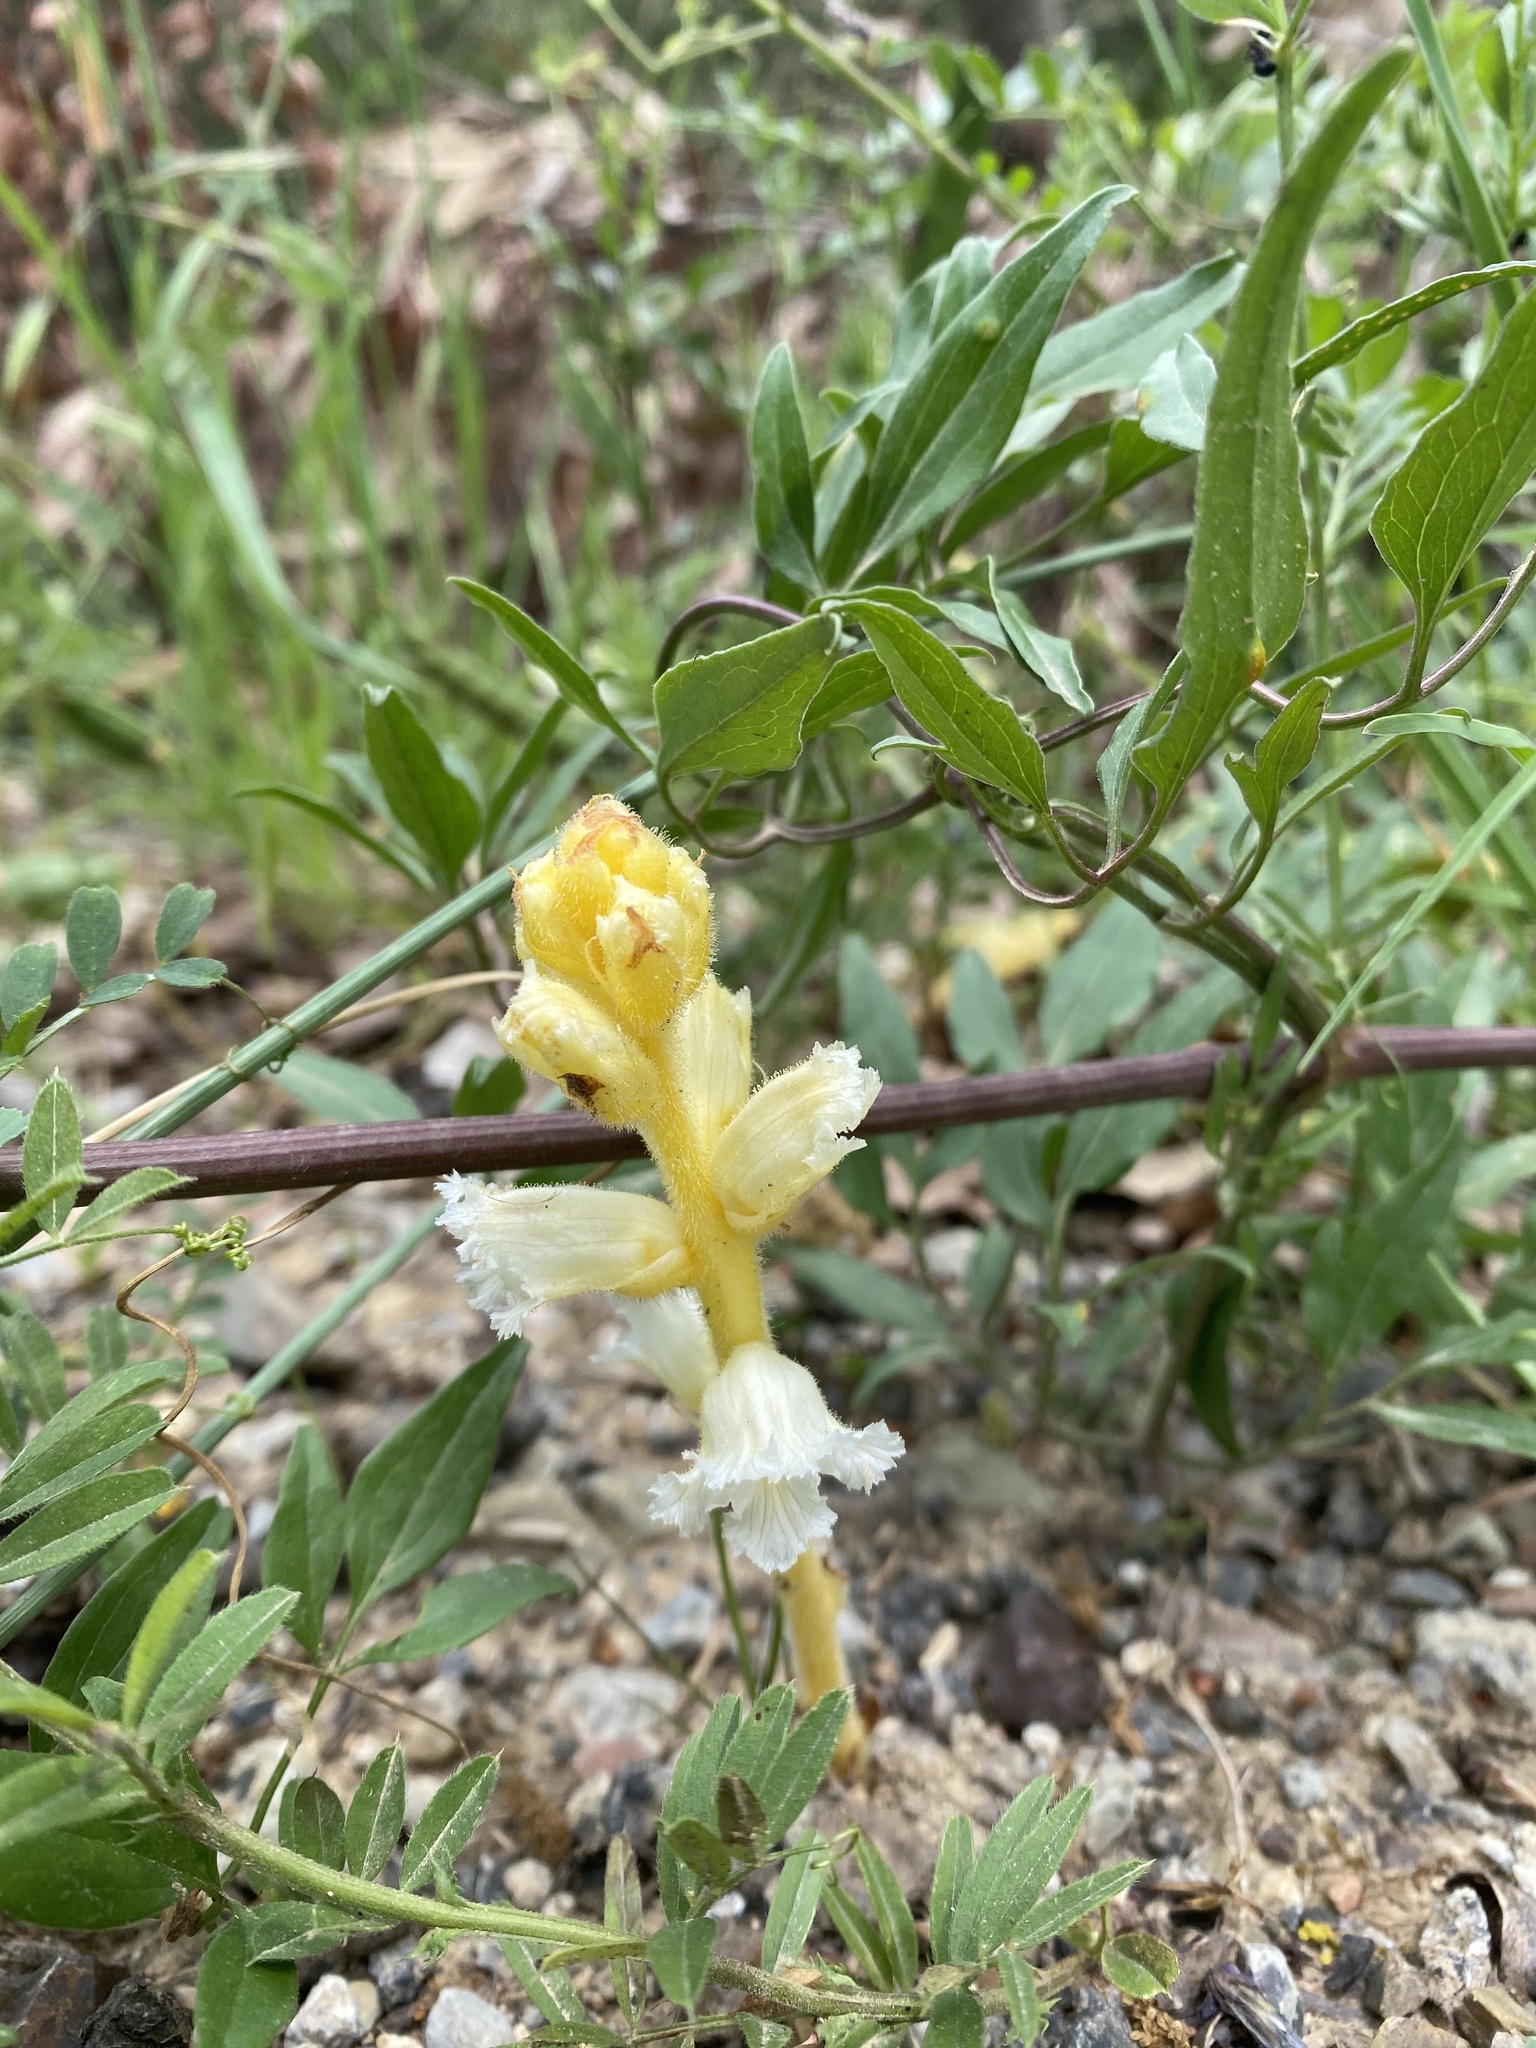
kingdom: Plantae
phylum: Tracheophyta
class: Magnoliopsida
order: Lamiales
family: Orobanchaceae
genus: Orobanche
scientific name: Orobanche crenata
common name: Bean broomrape
